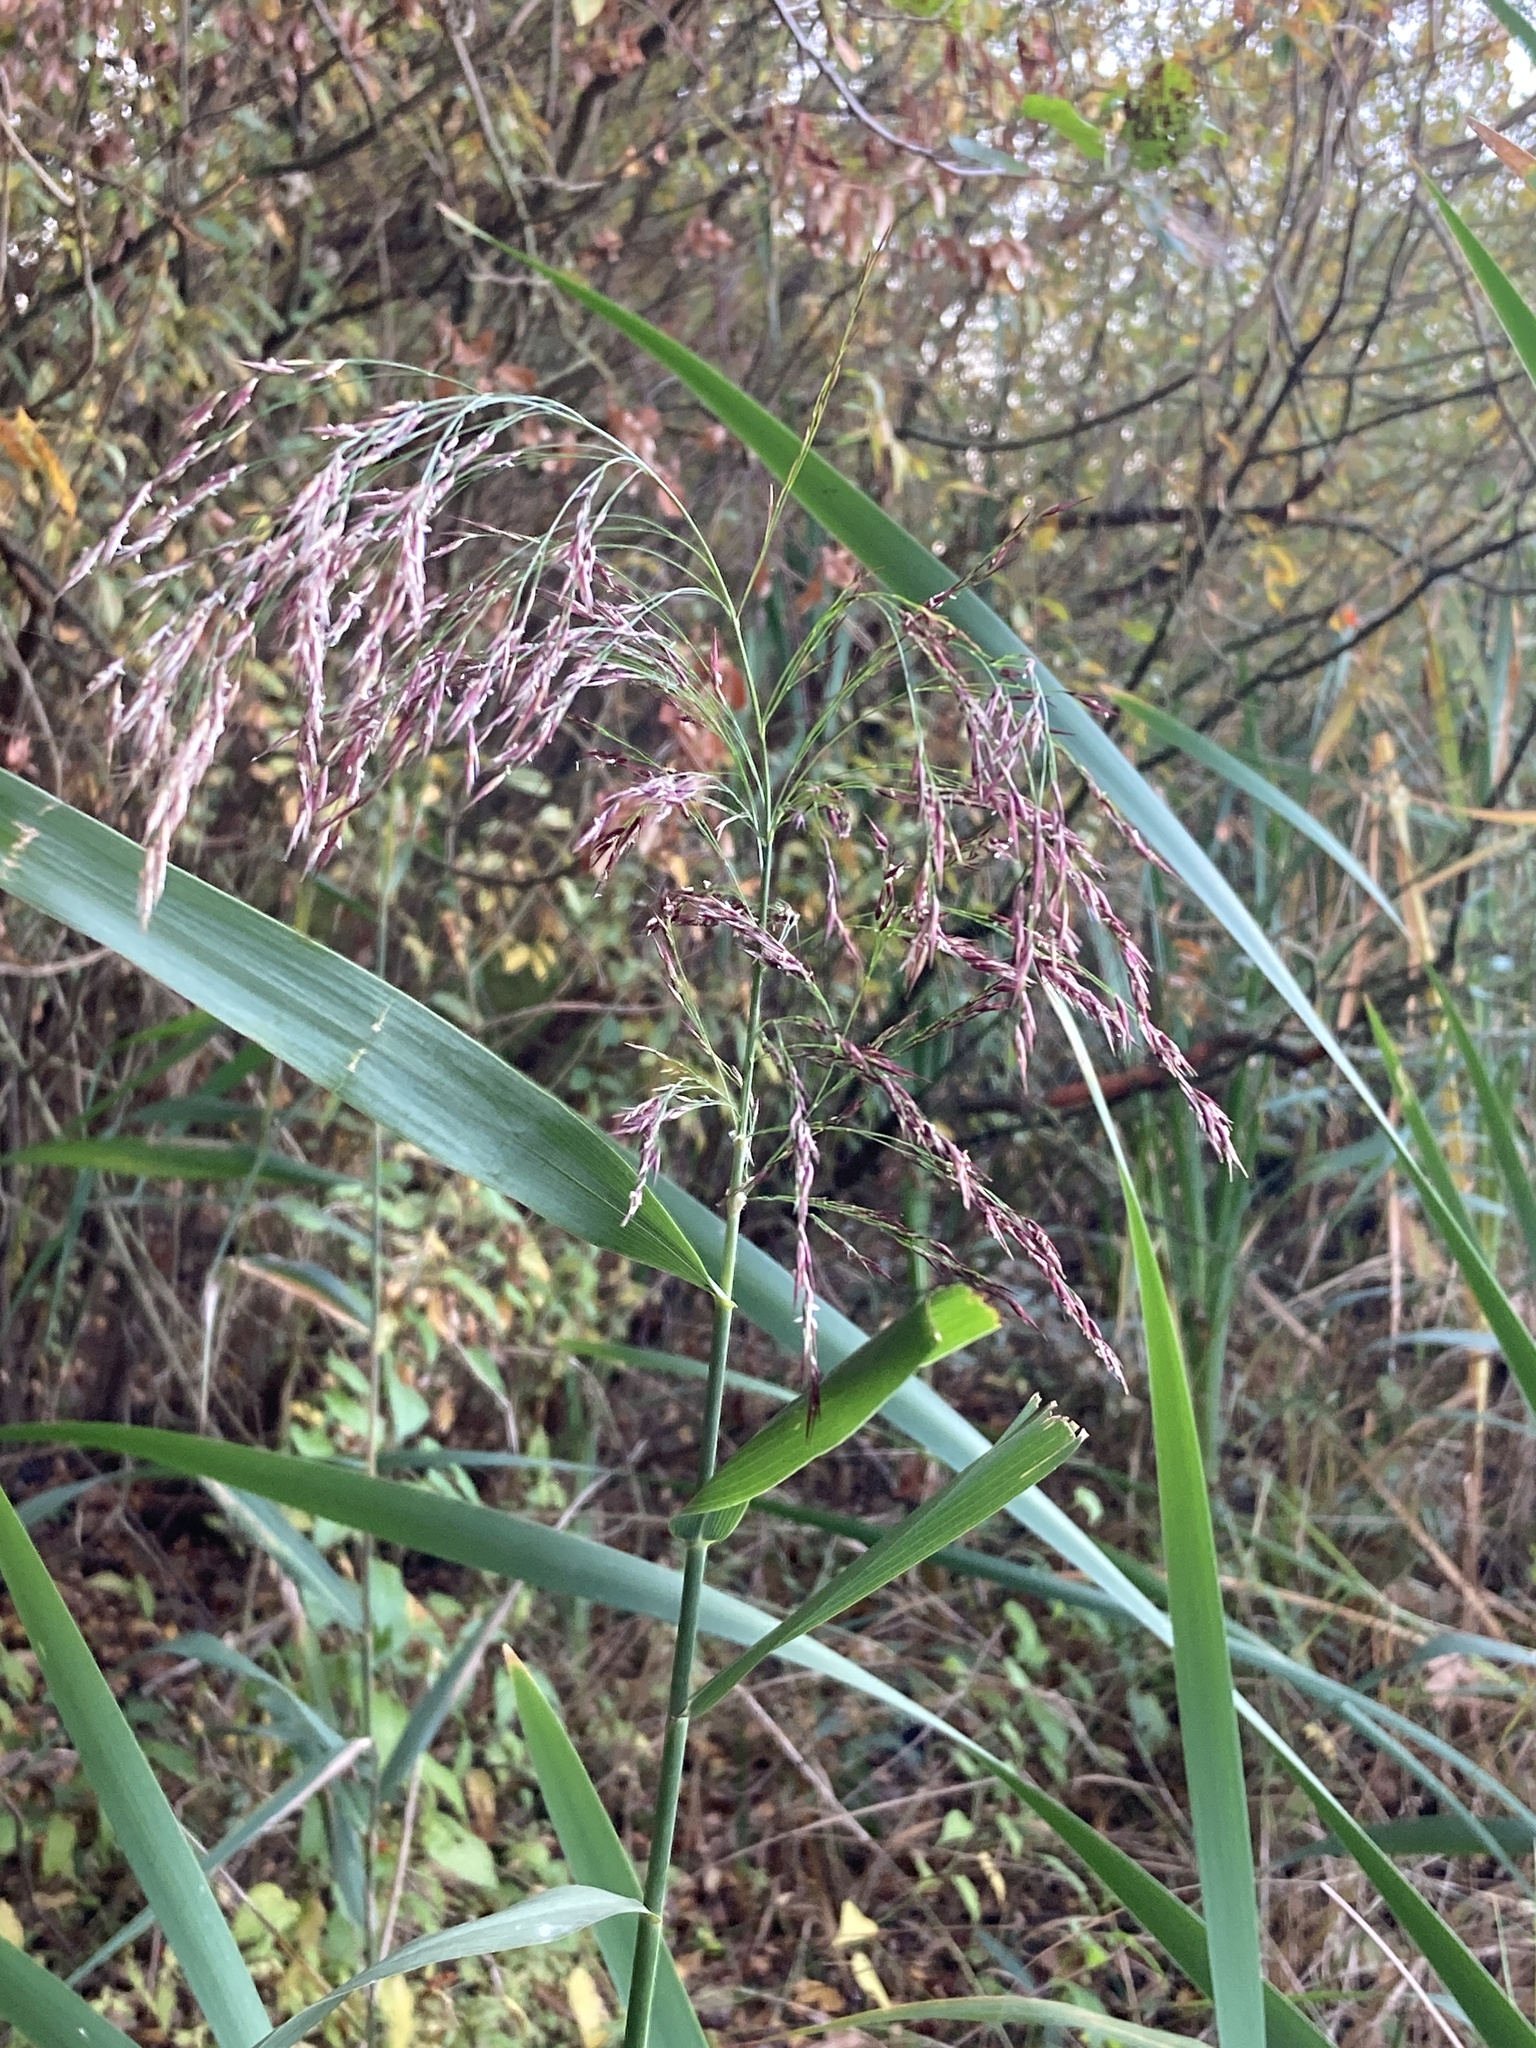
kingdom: Plantae
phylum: Tracheophyta
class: Liliopsida
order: Poales
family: Poaceae
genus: Phragmites
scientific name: Phragmites australis
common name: Common reed
